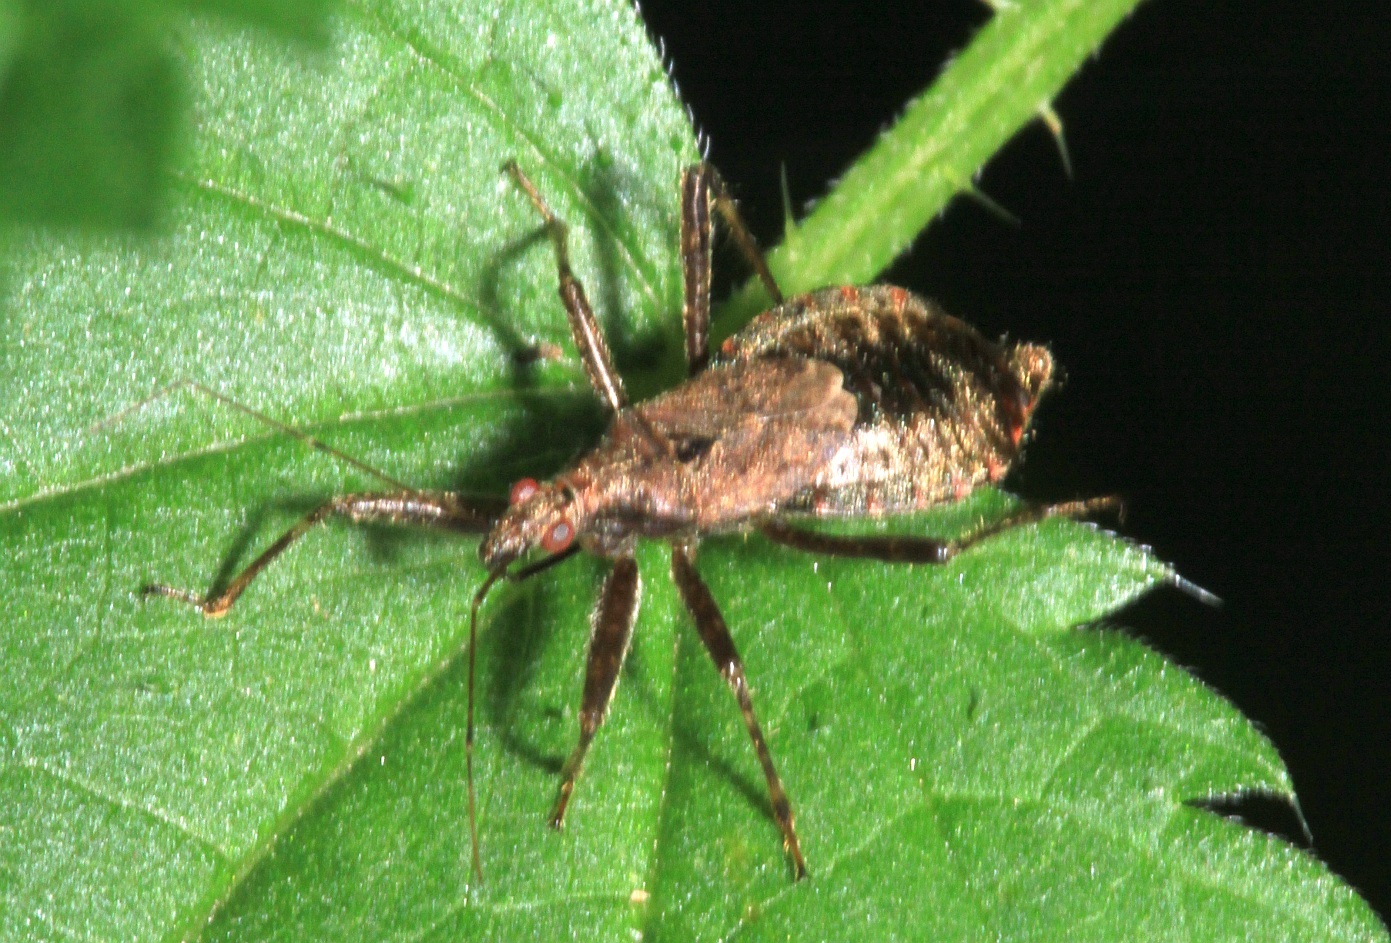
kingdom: Animalia
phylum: Arthropoda
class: Insecta
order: Hemiptera
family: Nabidae
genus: Himacerus
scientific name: Himacerus apterus
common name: Tree damsel bug
